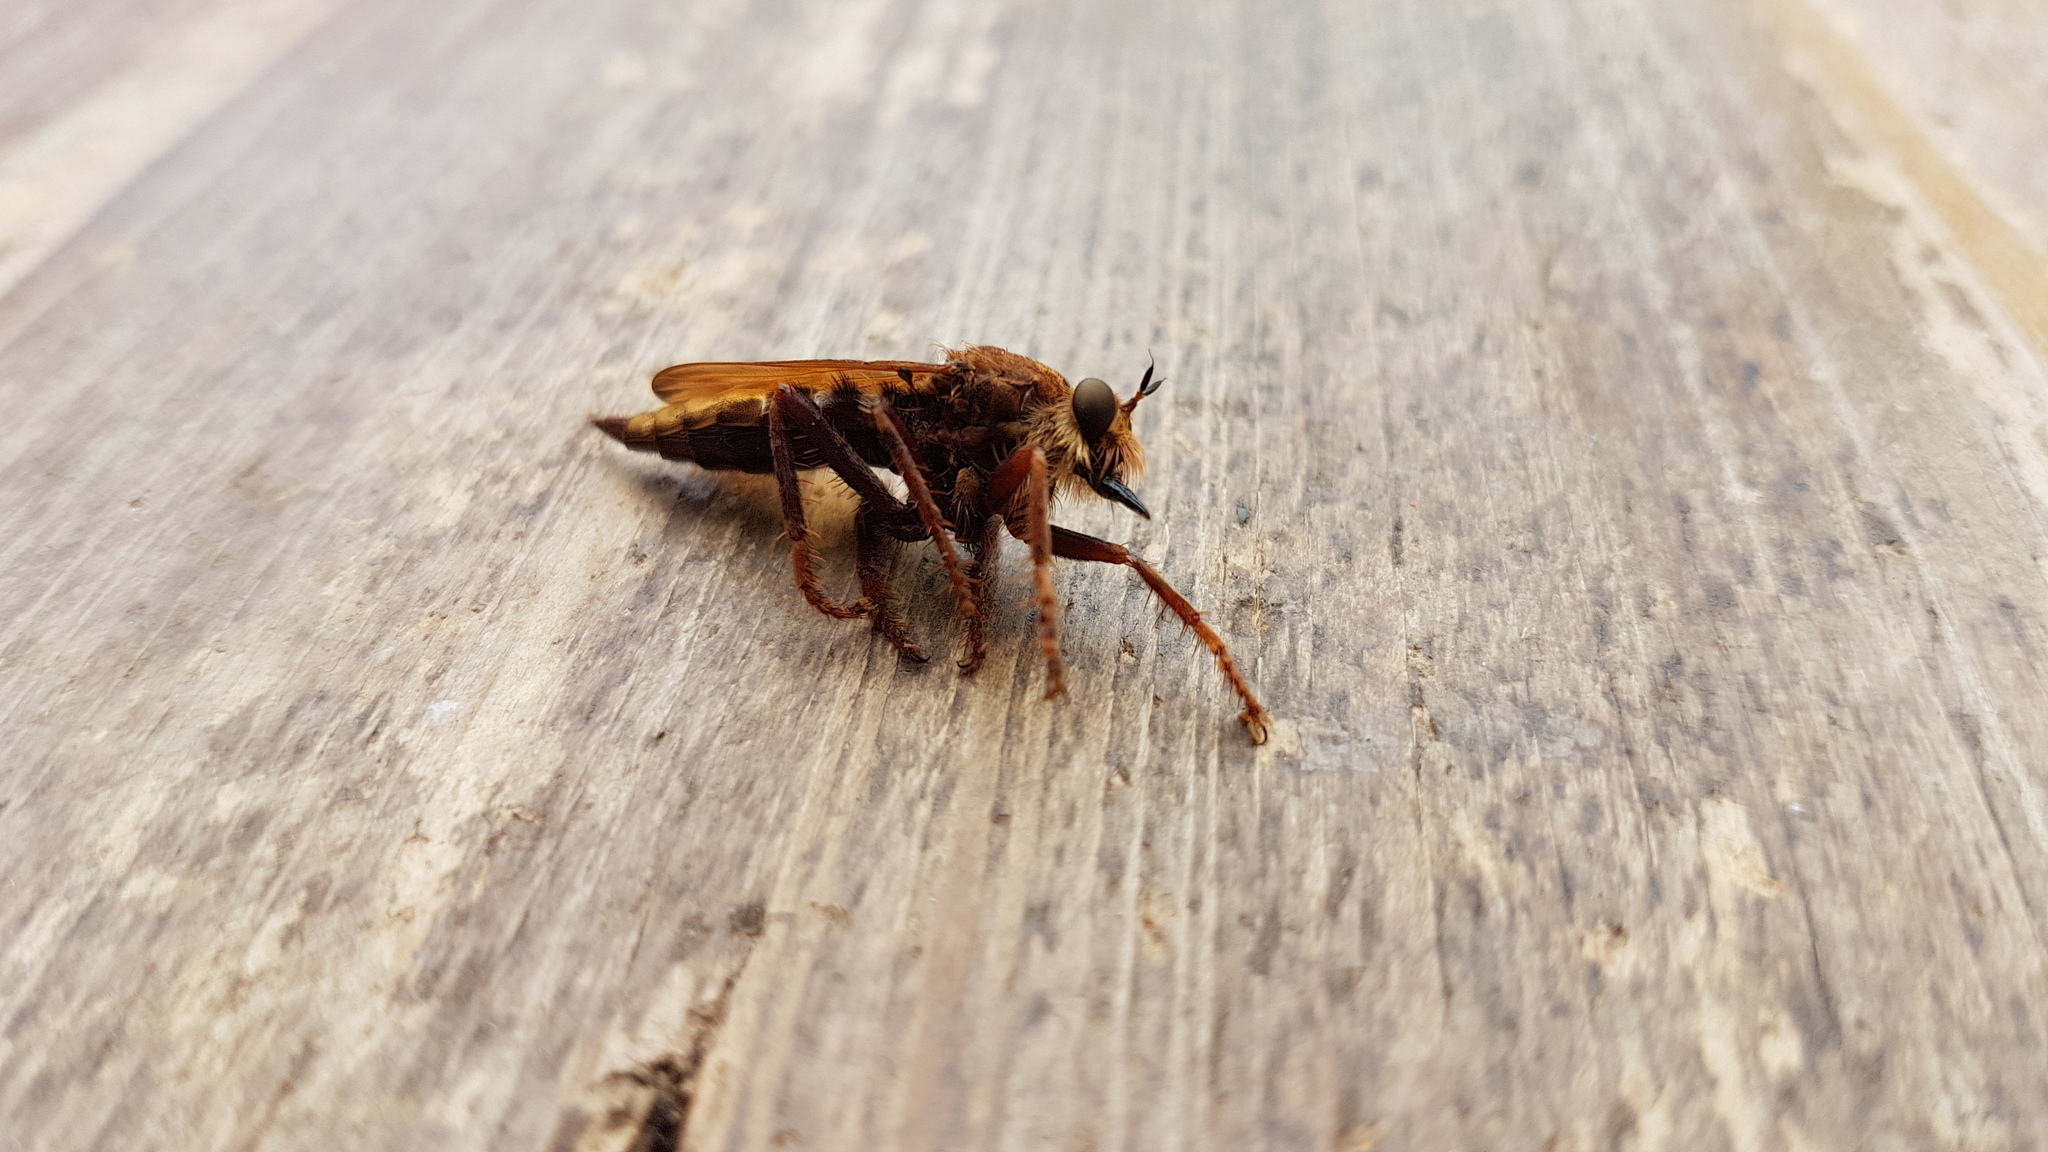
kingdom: Animalia
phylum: Arthropoda
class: Insecta
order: Diptera
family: Asilidae
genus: Asilus
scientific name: Asilus crabroniformis
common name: Hornet robberfly
